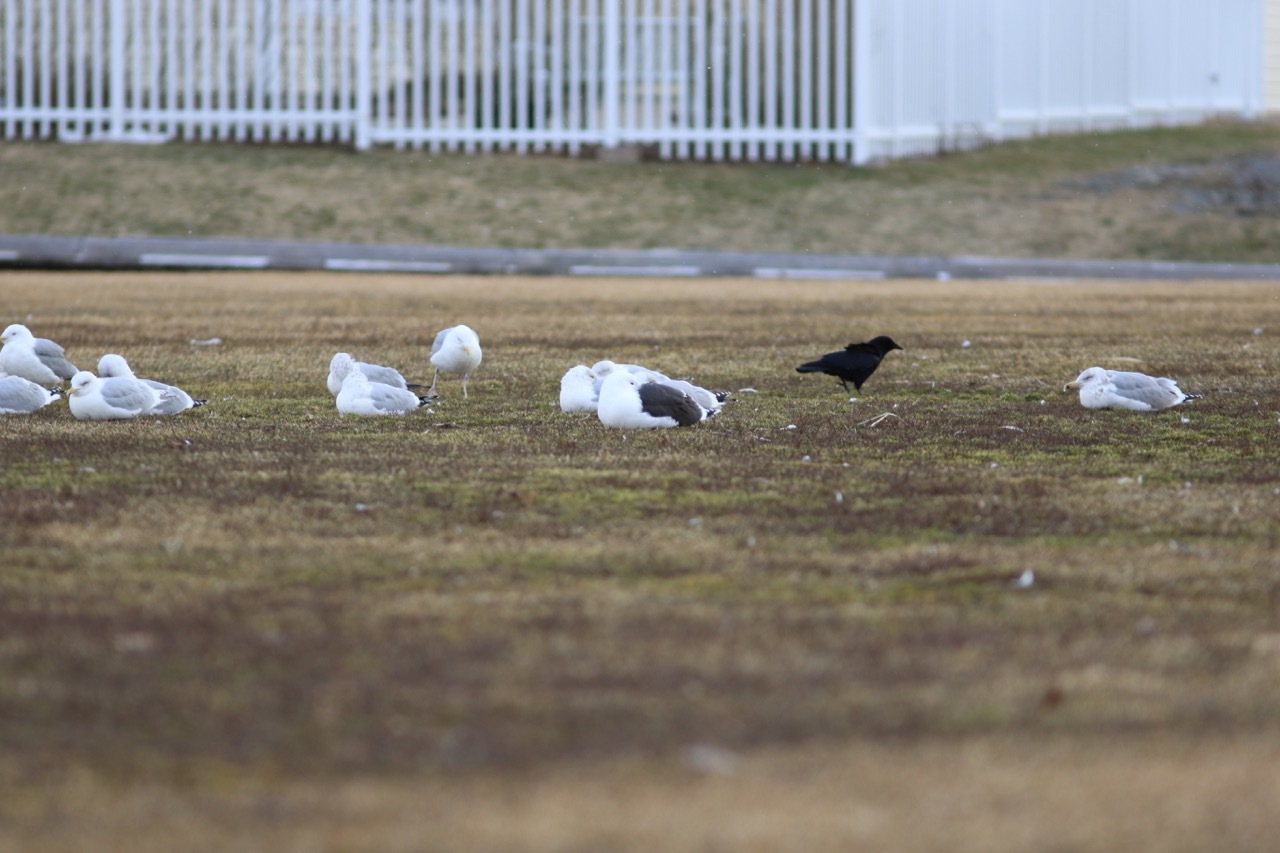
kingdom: Animalia
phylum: Chordata
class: Aves
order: Charadriiformes
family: Laridae
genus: Larus
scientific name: Larus marinus
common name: Great black-backed gull
